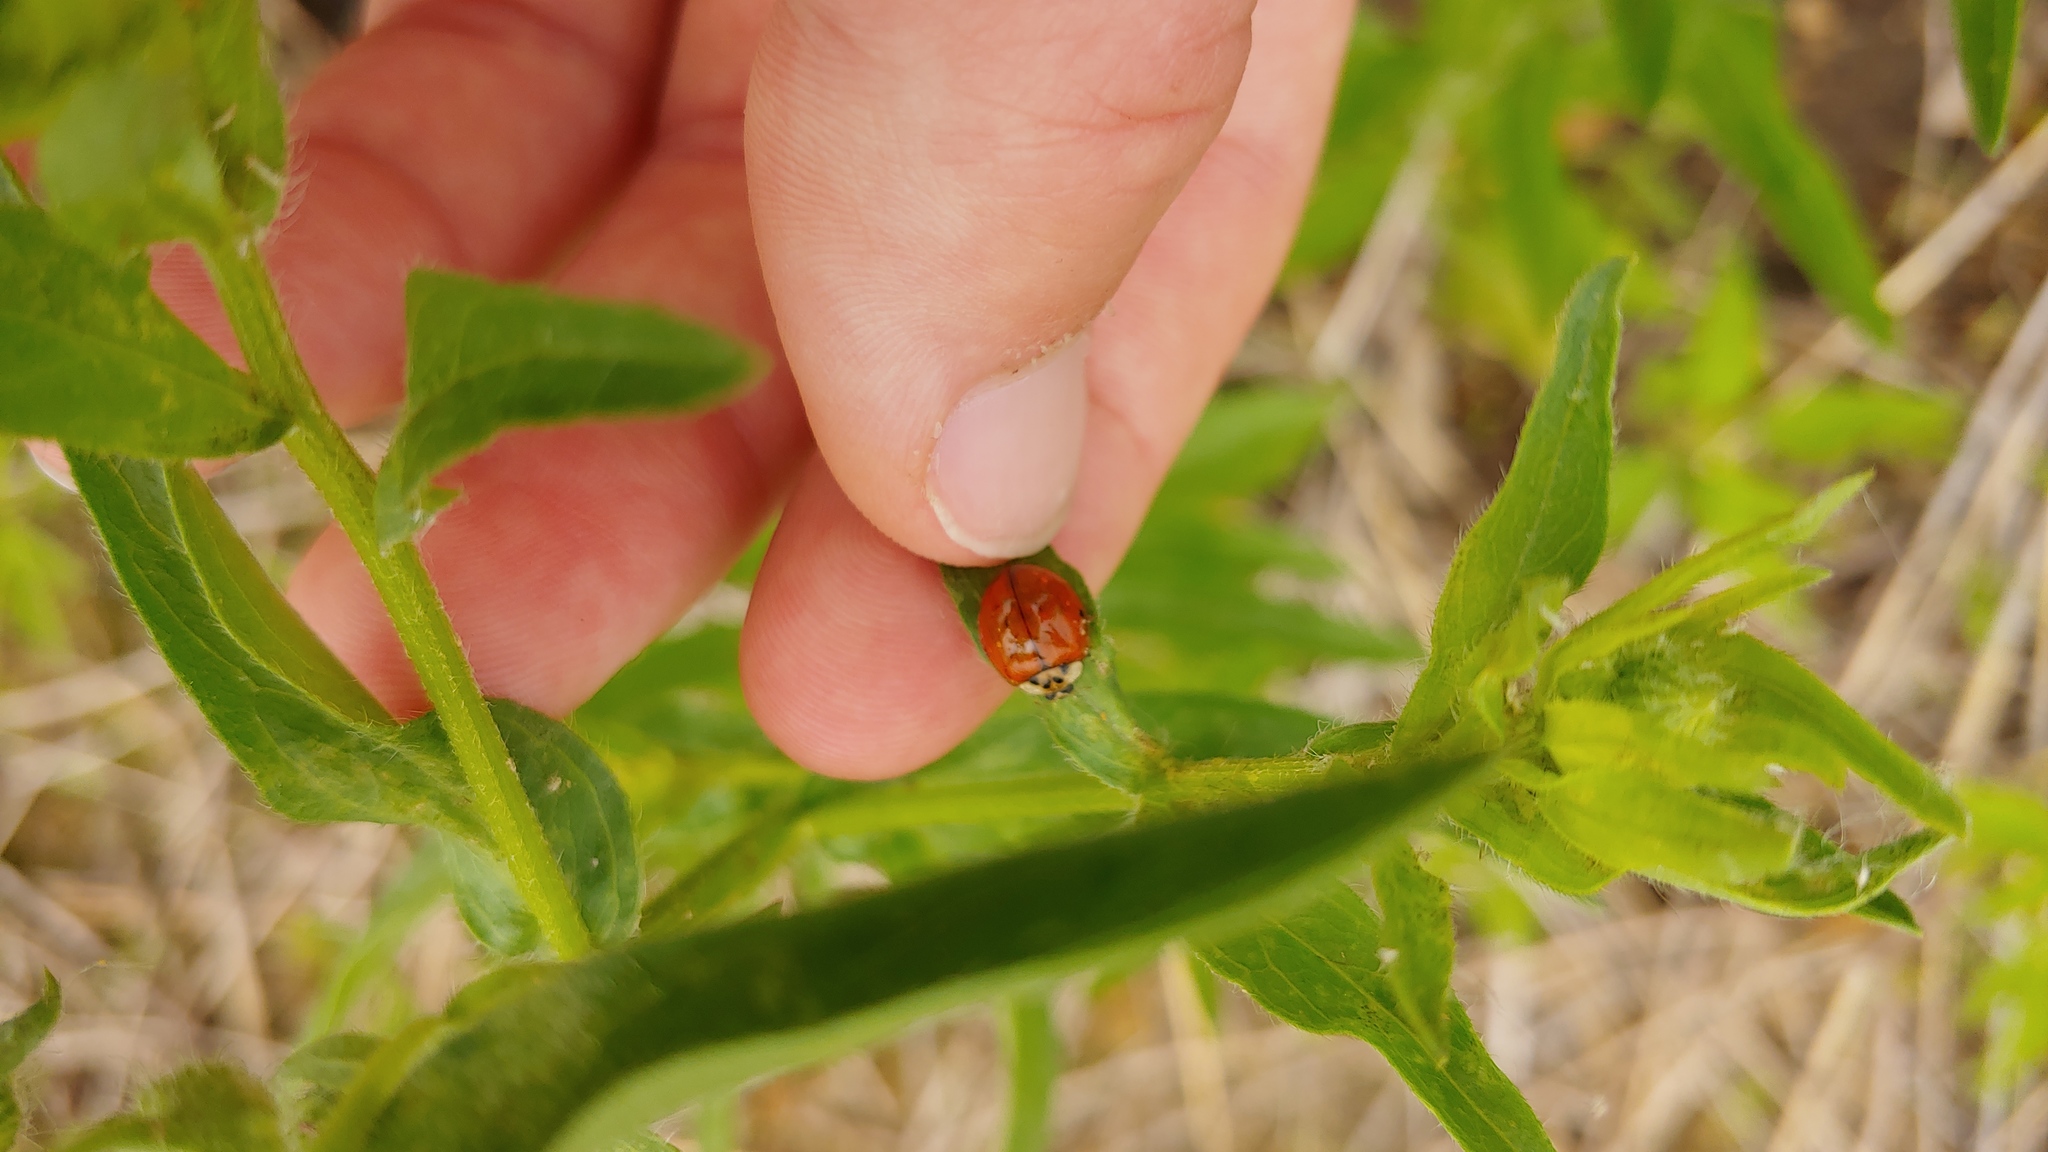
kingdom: Animalia
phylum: Arthropoda
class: Insecta
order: Coleoptera
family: Coccinellidae
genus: Harmonia
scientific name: Harmonia axyridis
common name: Harlequin ladybird
